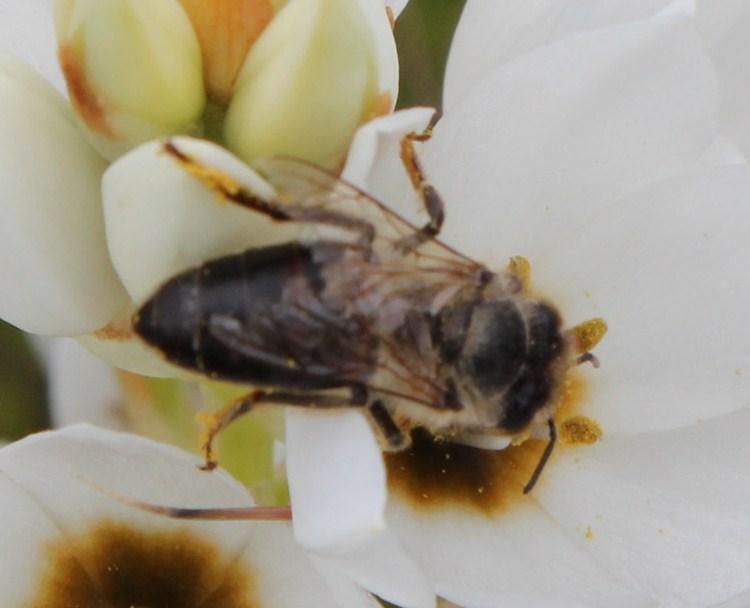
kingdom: Animalia
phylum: Arthropoda
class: Insecta
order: Hymenoptera
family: Apidae
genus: Apis
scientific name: Apis mellifera
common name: Honey bee
